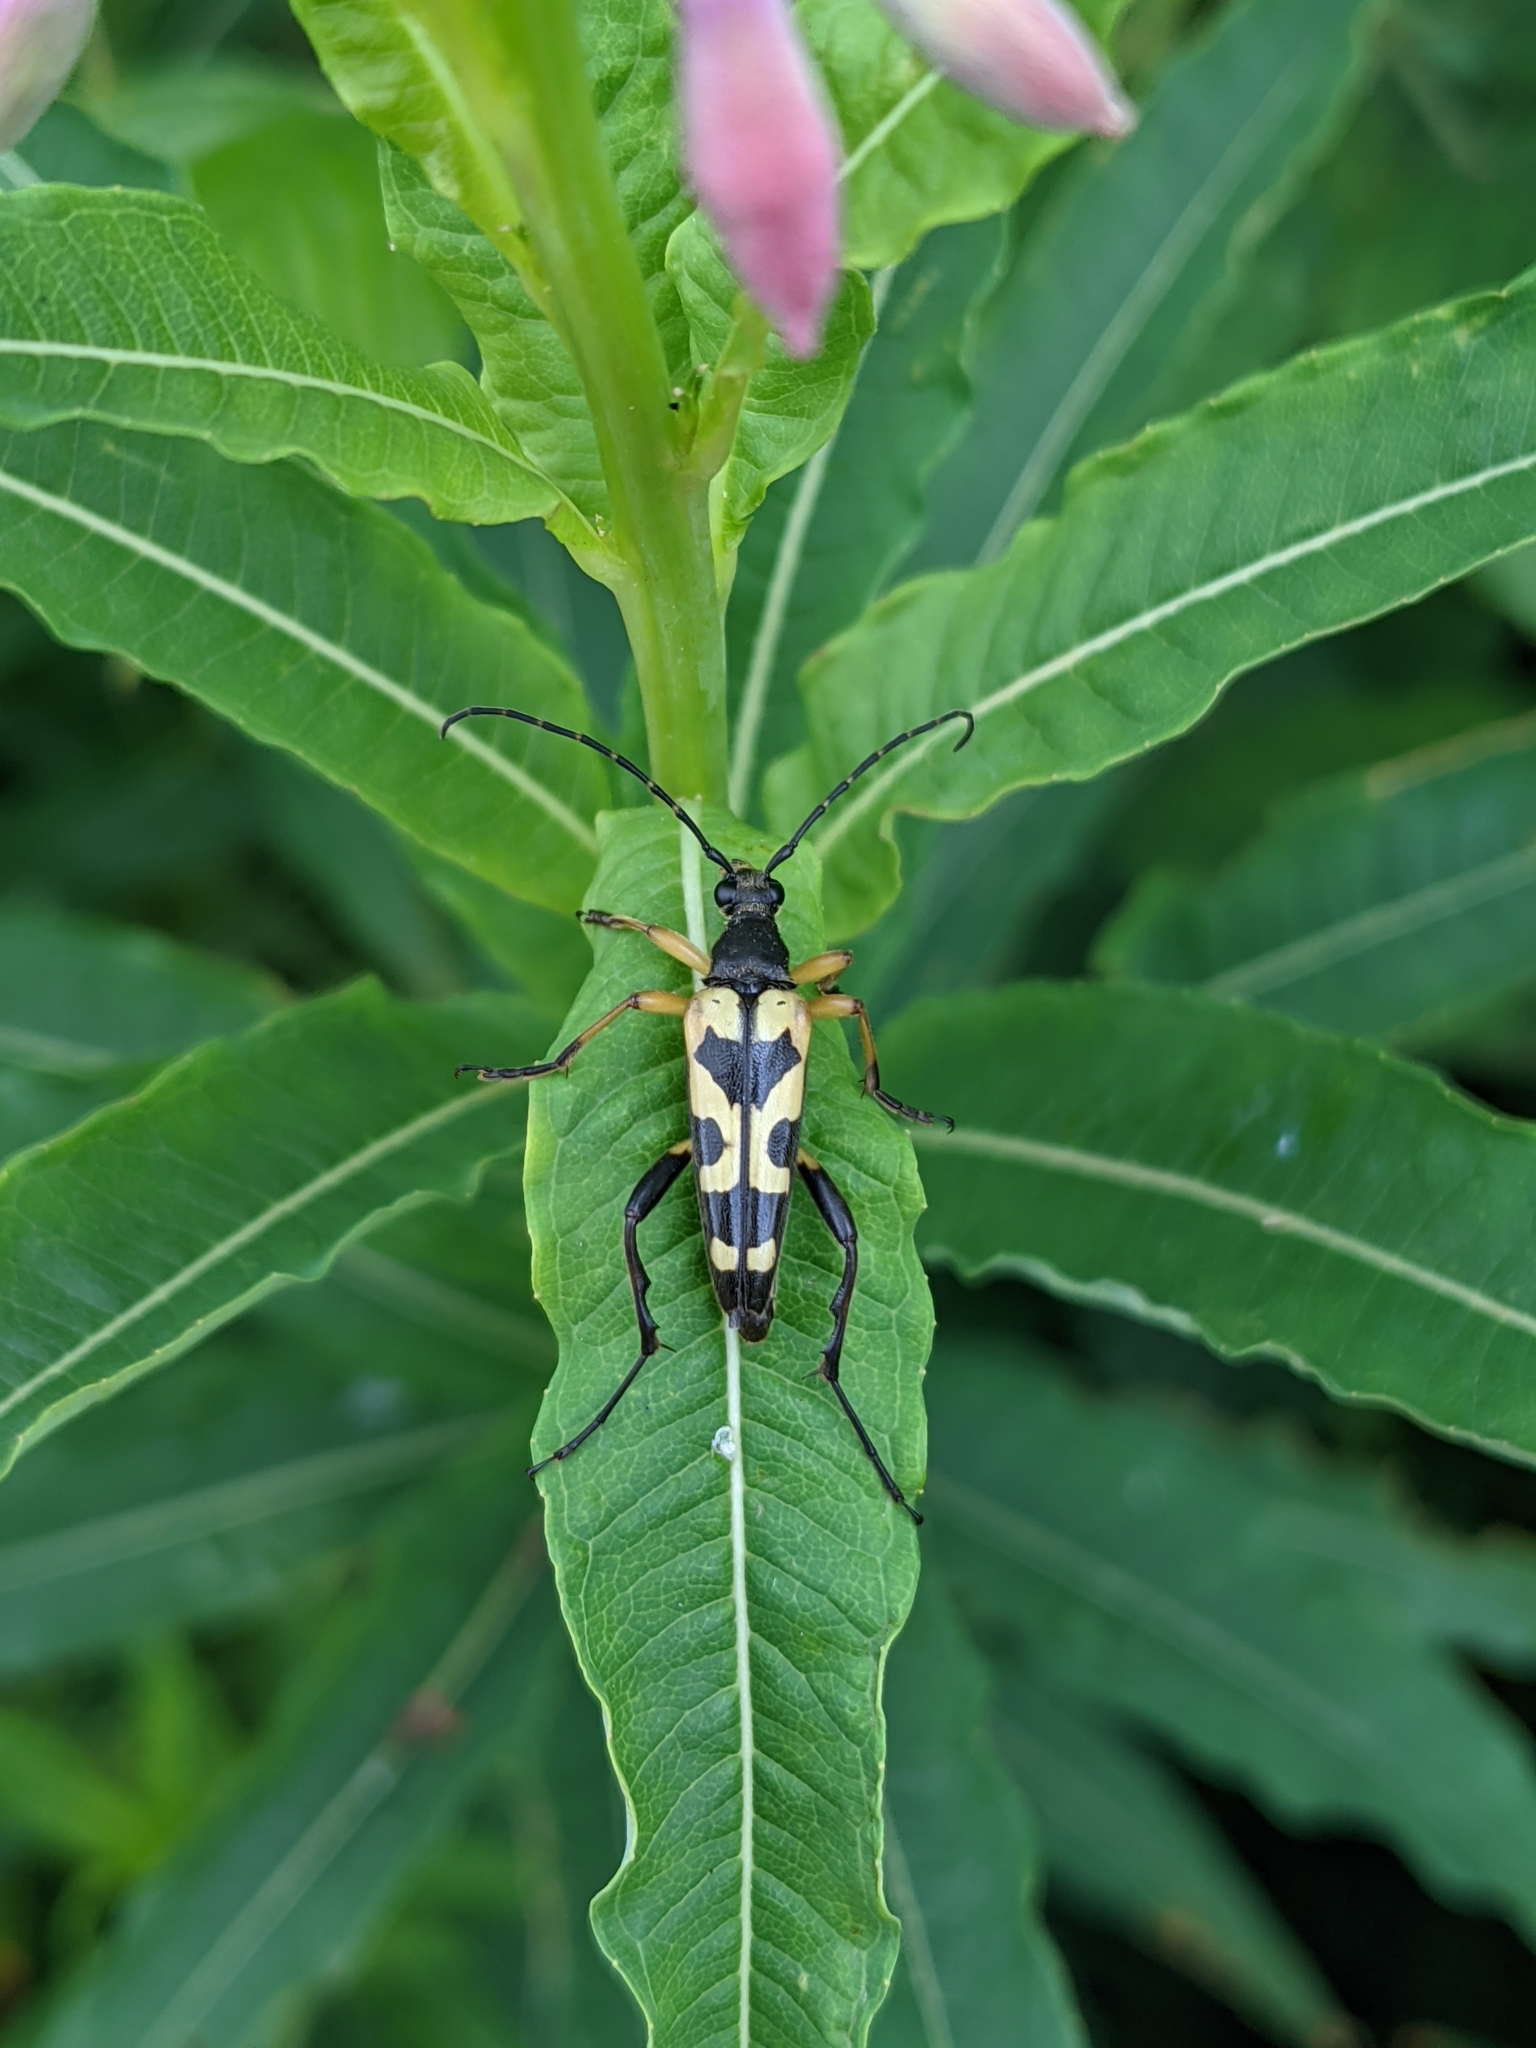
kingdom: Animalia
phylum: Arthropoda
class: Insecta
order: Coleoptera
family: Cerambycidae
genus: Rutpela
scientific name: Rutpela maculata
